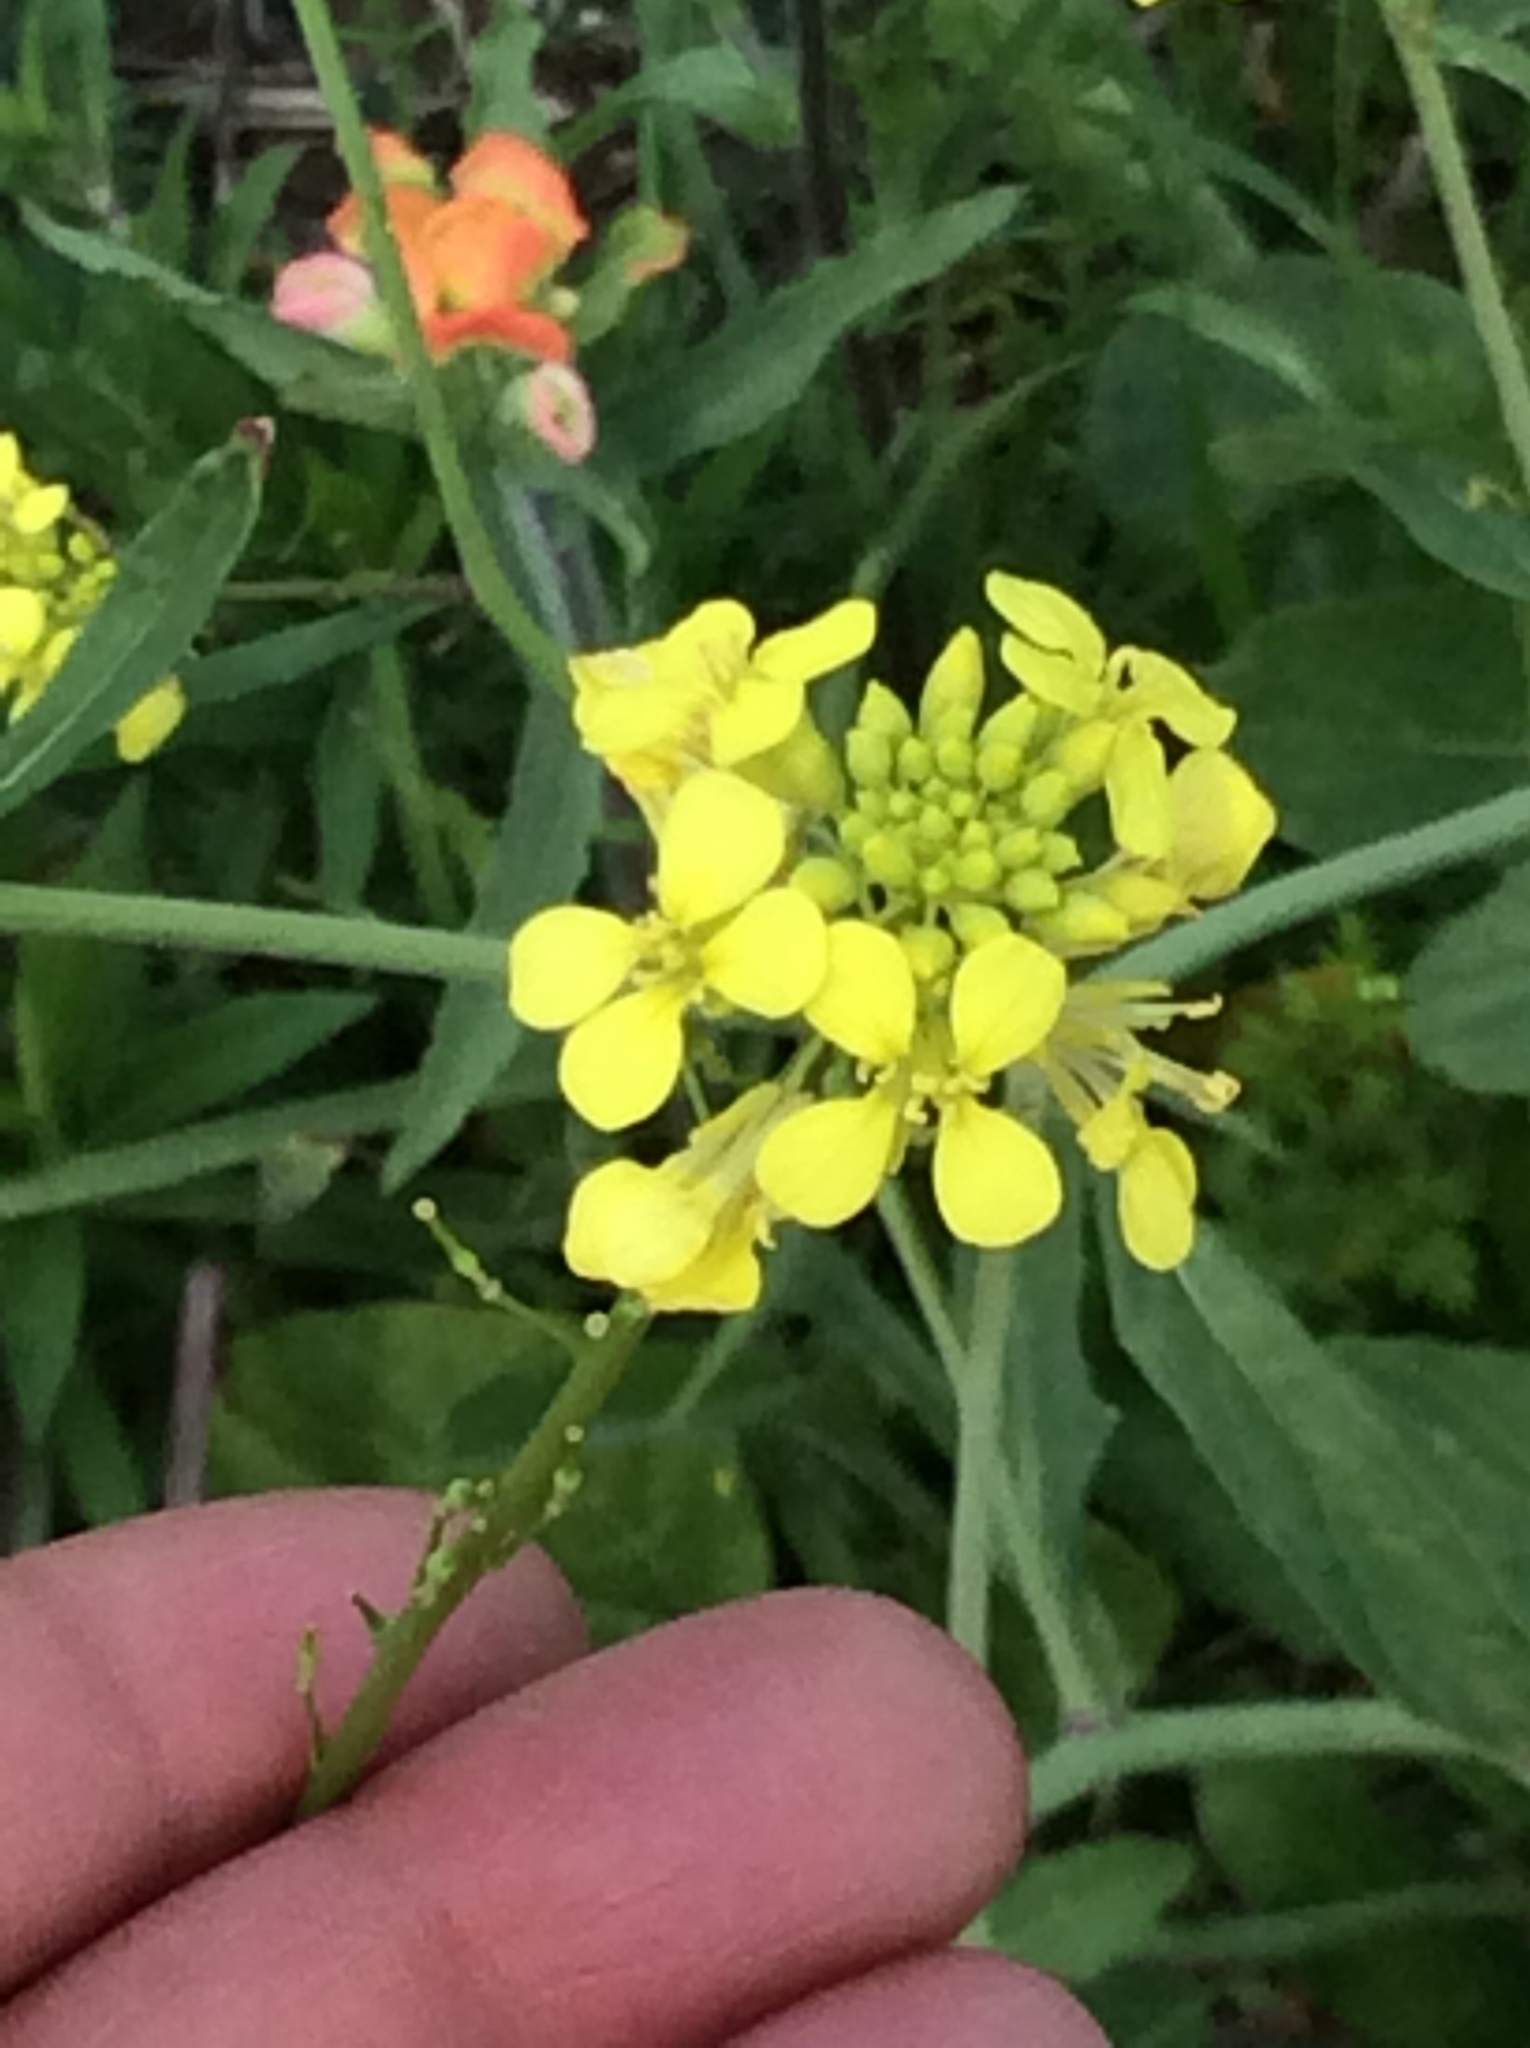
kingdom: Plantae
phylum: Tracheophyta
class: Magnoliopsida
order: Brassicales
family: Brassicaceae
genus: Rapistrum
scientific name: Rapistrum rugosum
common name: Annual bastardcabbage
